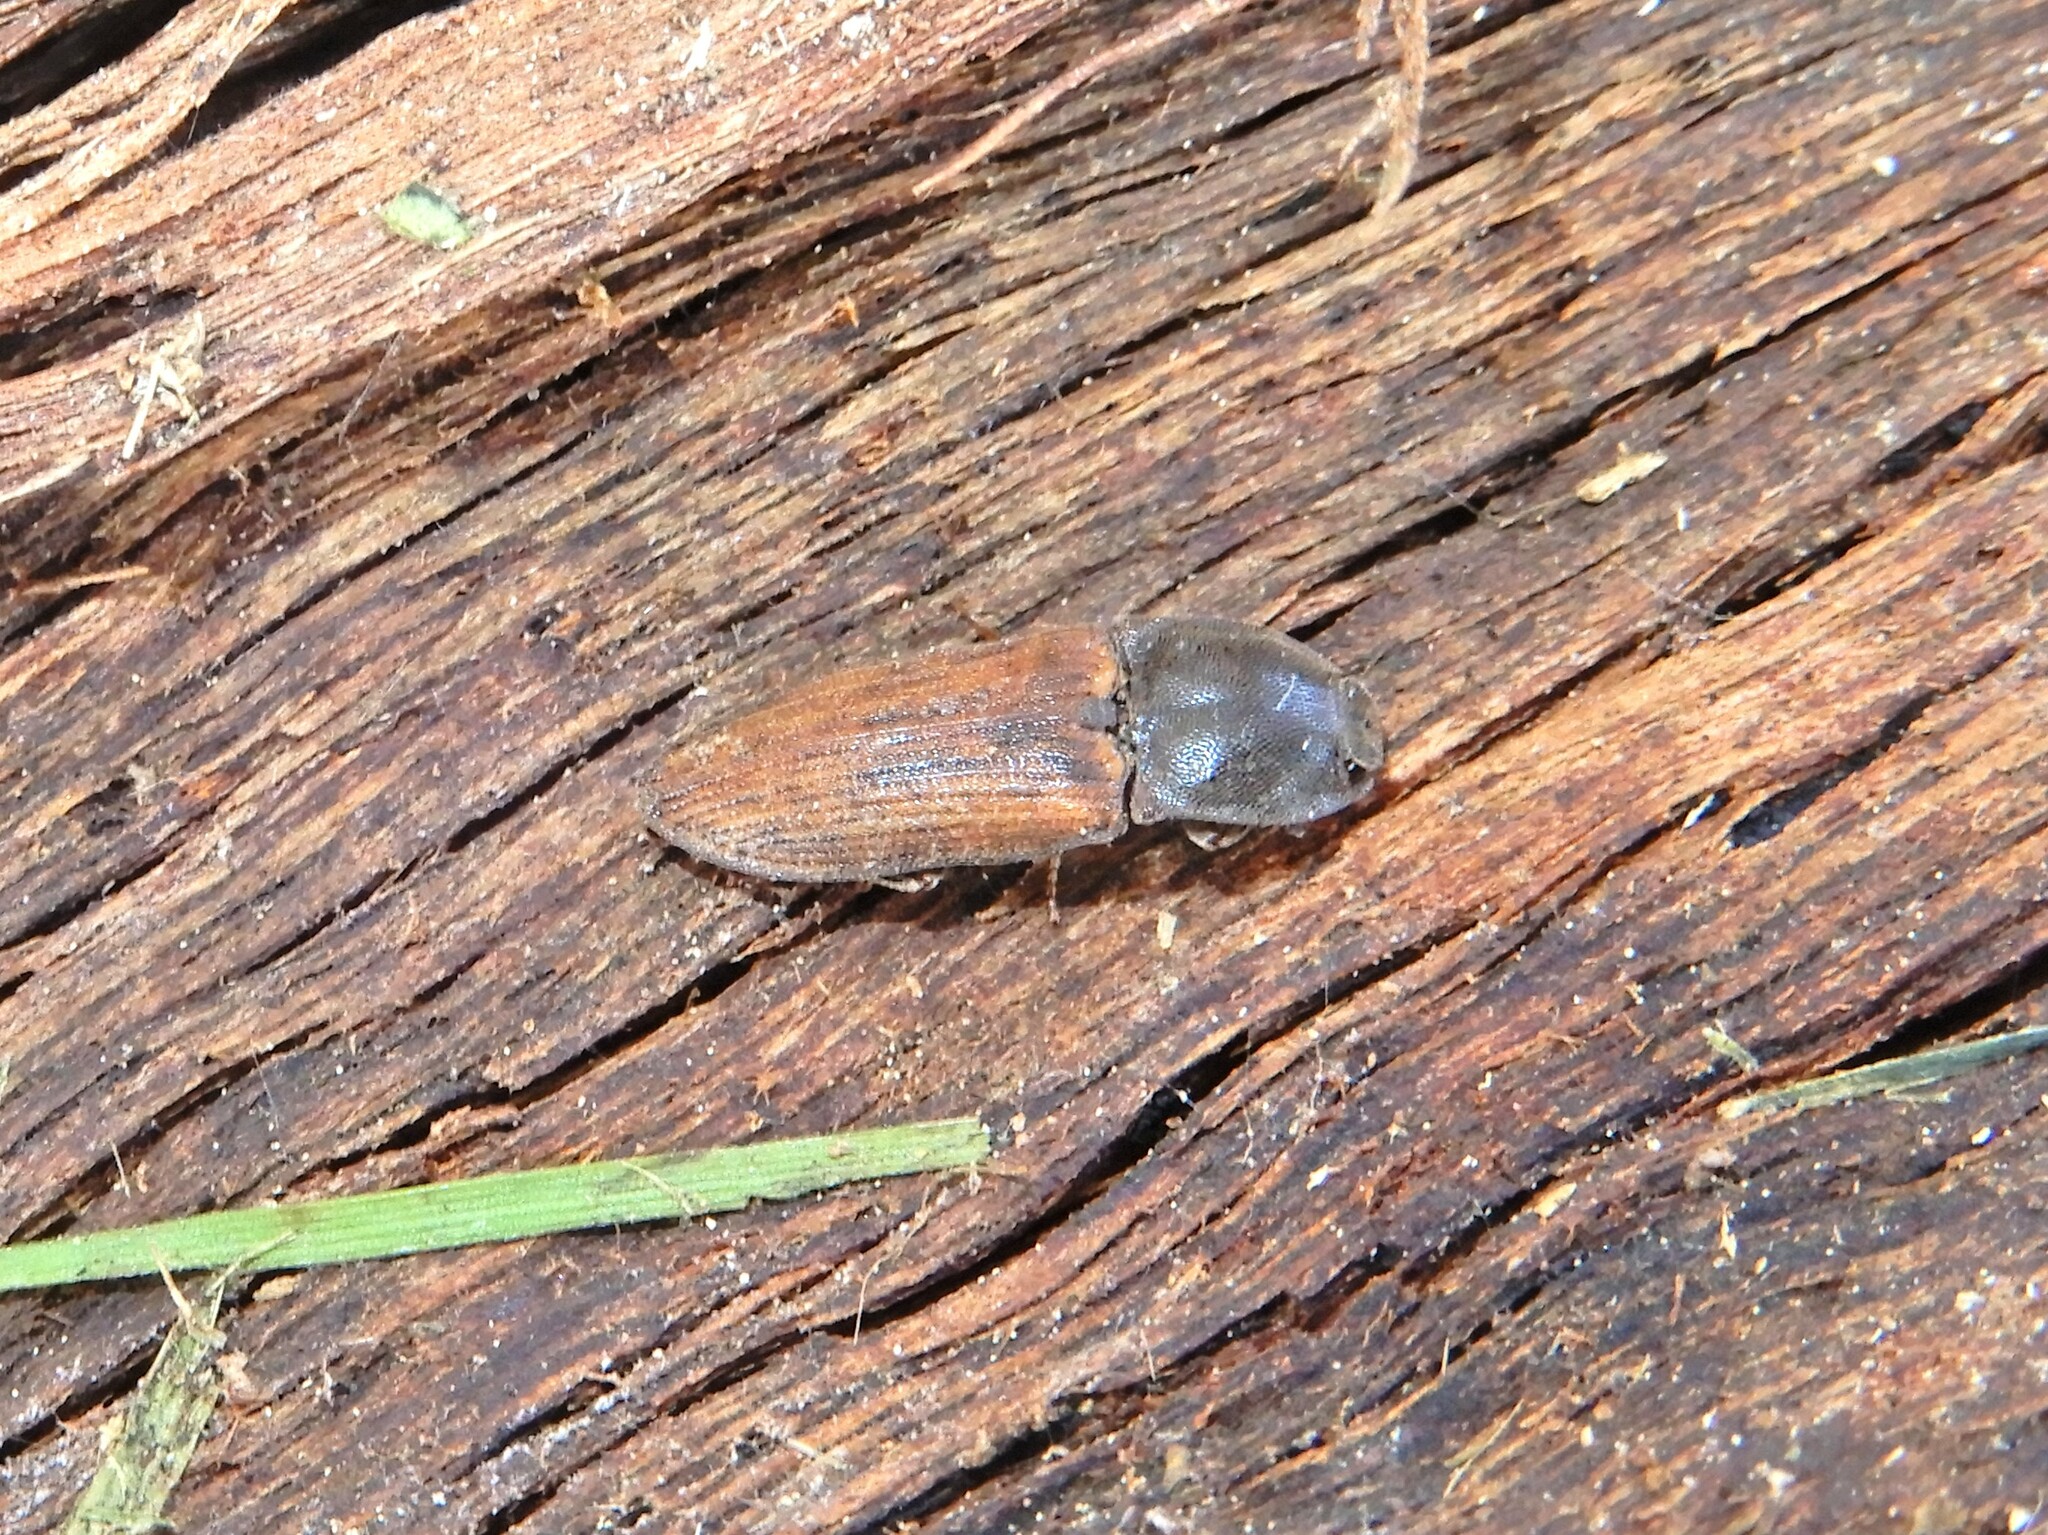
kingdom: Animalia
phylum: Arthropoda
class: Insecta
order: Coleoptera
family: Elateridae
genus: Agrypnus
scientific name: Agrypnus
